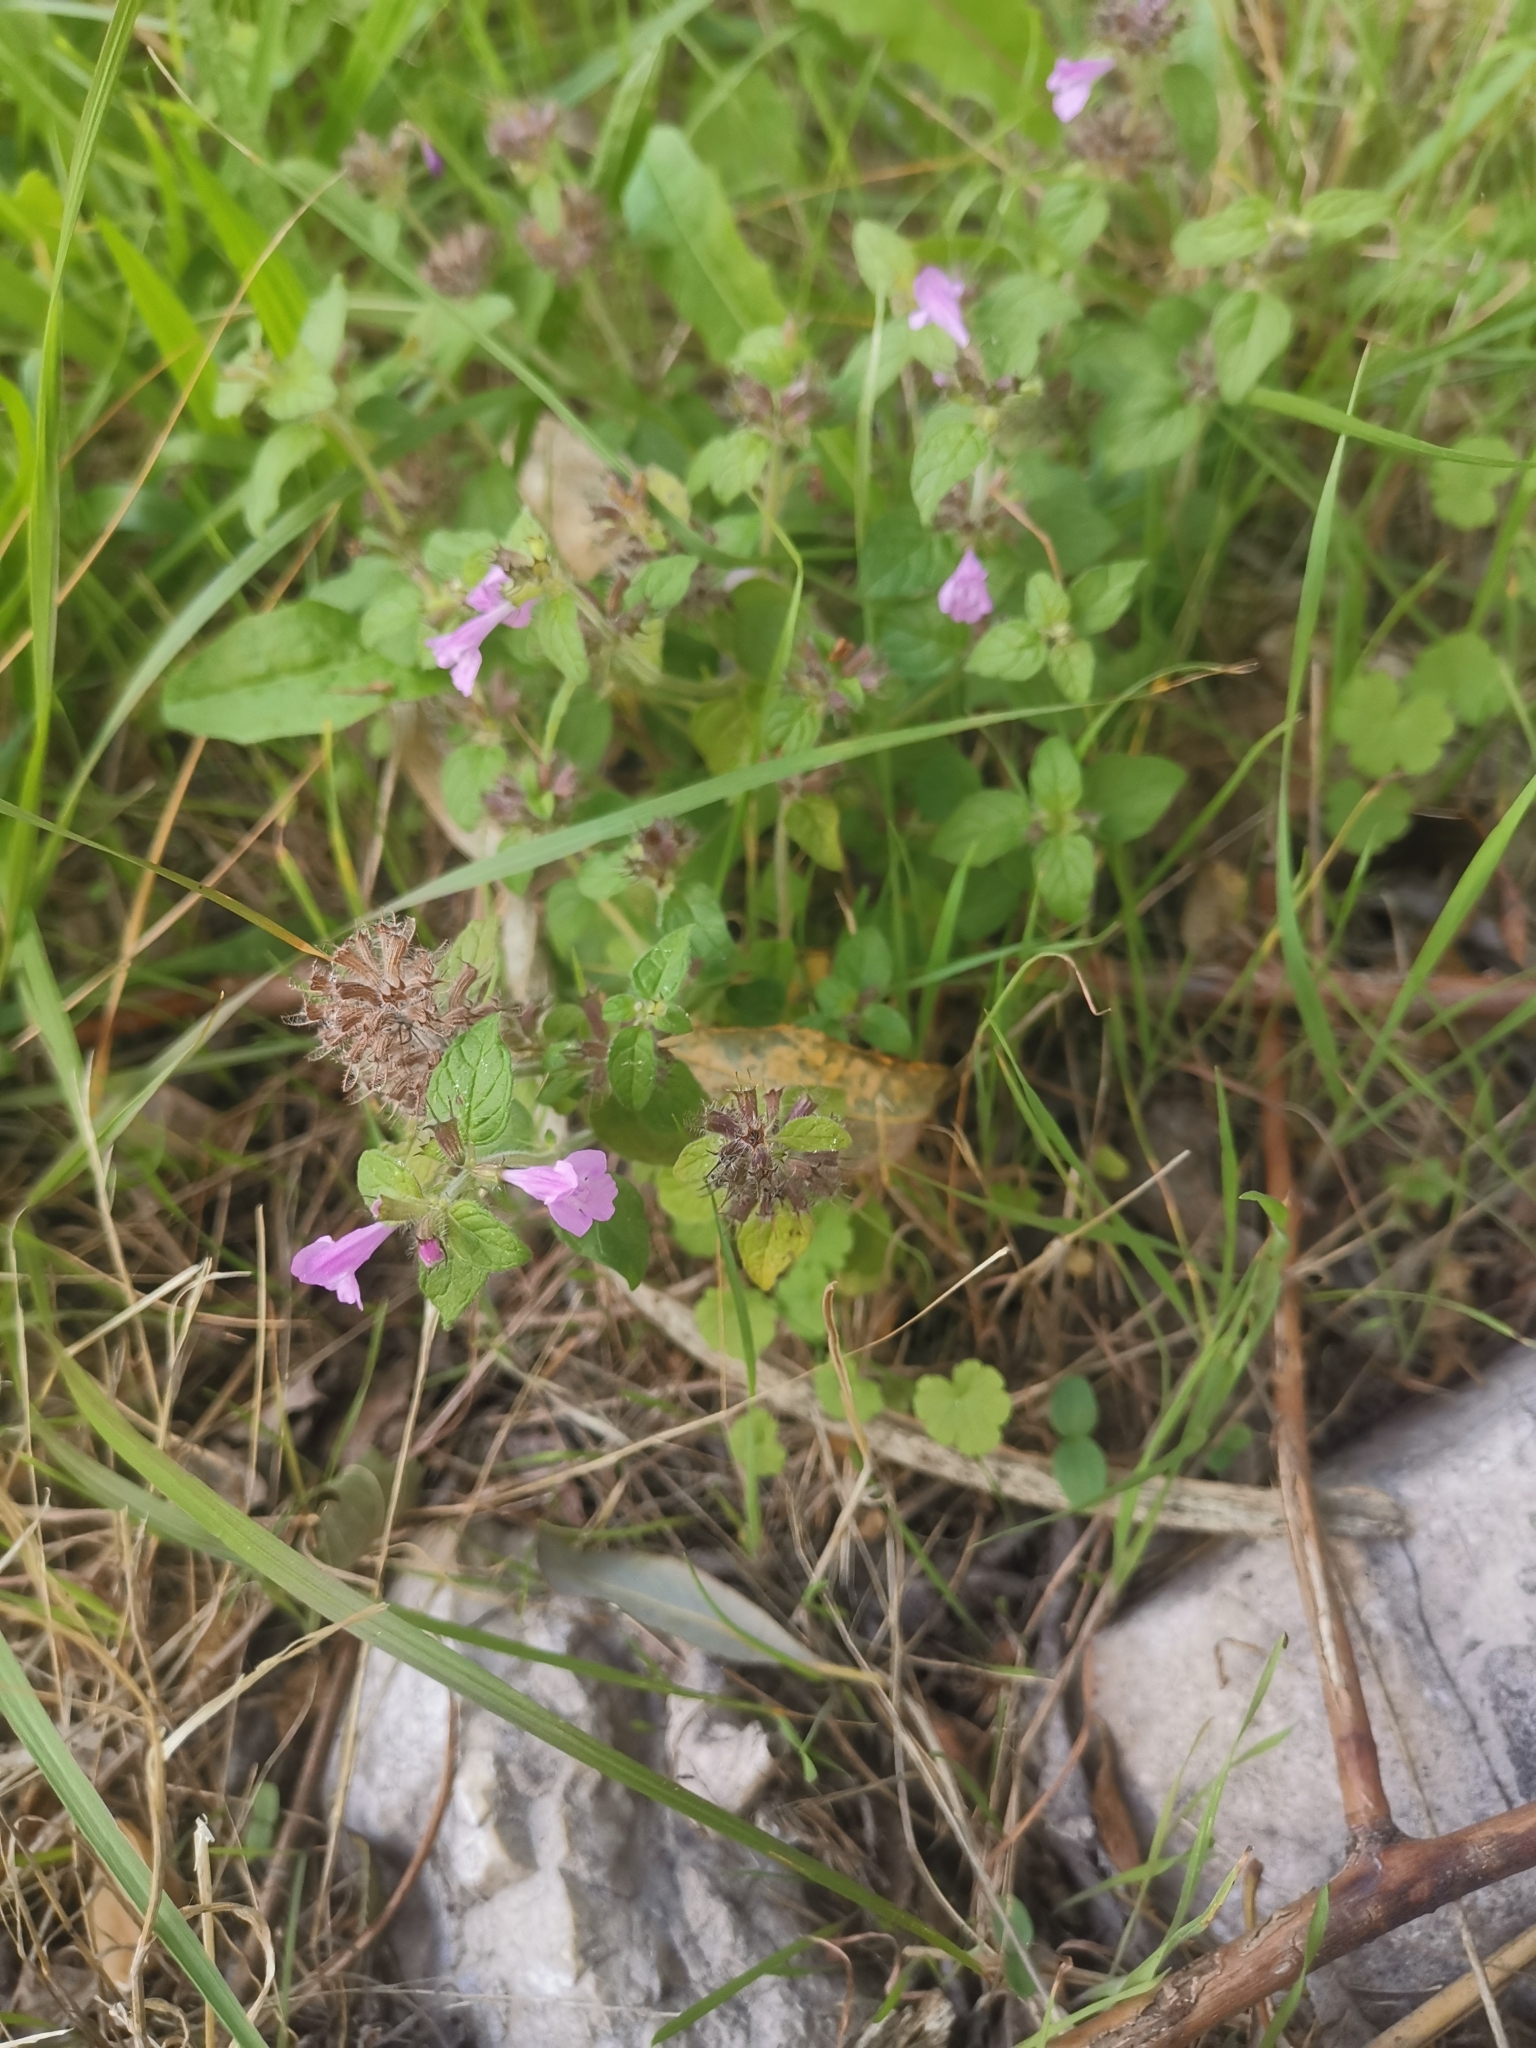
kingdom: Plantae
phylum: Tracheophyta
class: Magnoliopsida
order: Lamiales
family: Lamiaceae
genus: Clinopodium
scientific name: Clinopodium vulgare
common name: Wild basil
